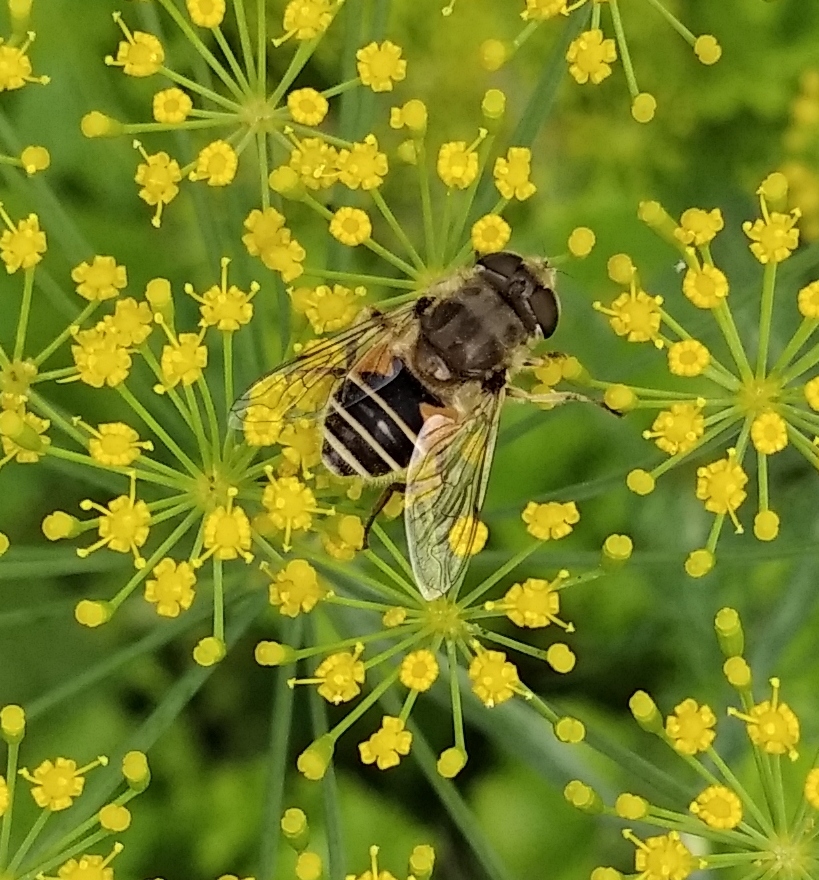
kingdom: Animalia
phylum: Arthropoda
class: Insecta
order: Diptera
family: Syrphidae
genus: Eristalis
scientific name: Eristalis arbustorum
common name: Hover fly
